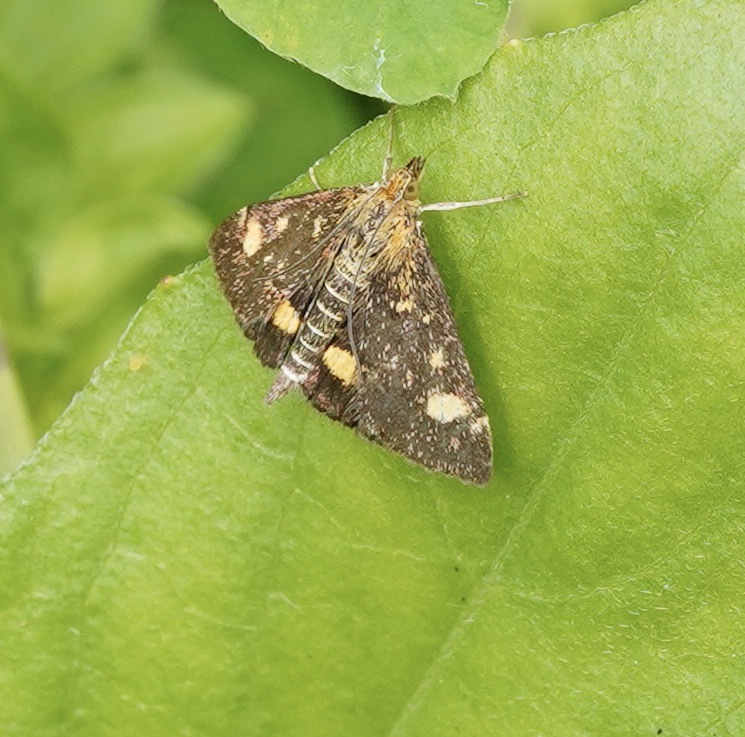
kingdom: Animalia
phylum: Arthropoda
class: Insecta
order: Lepidoptera
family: Crambidae
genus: Pyrausta
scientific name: Pyrausta aurata
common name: Small purple & gold
